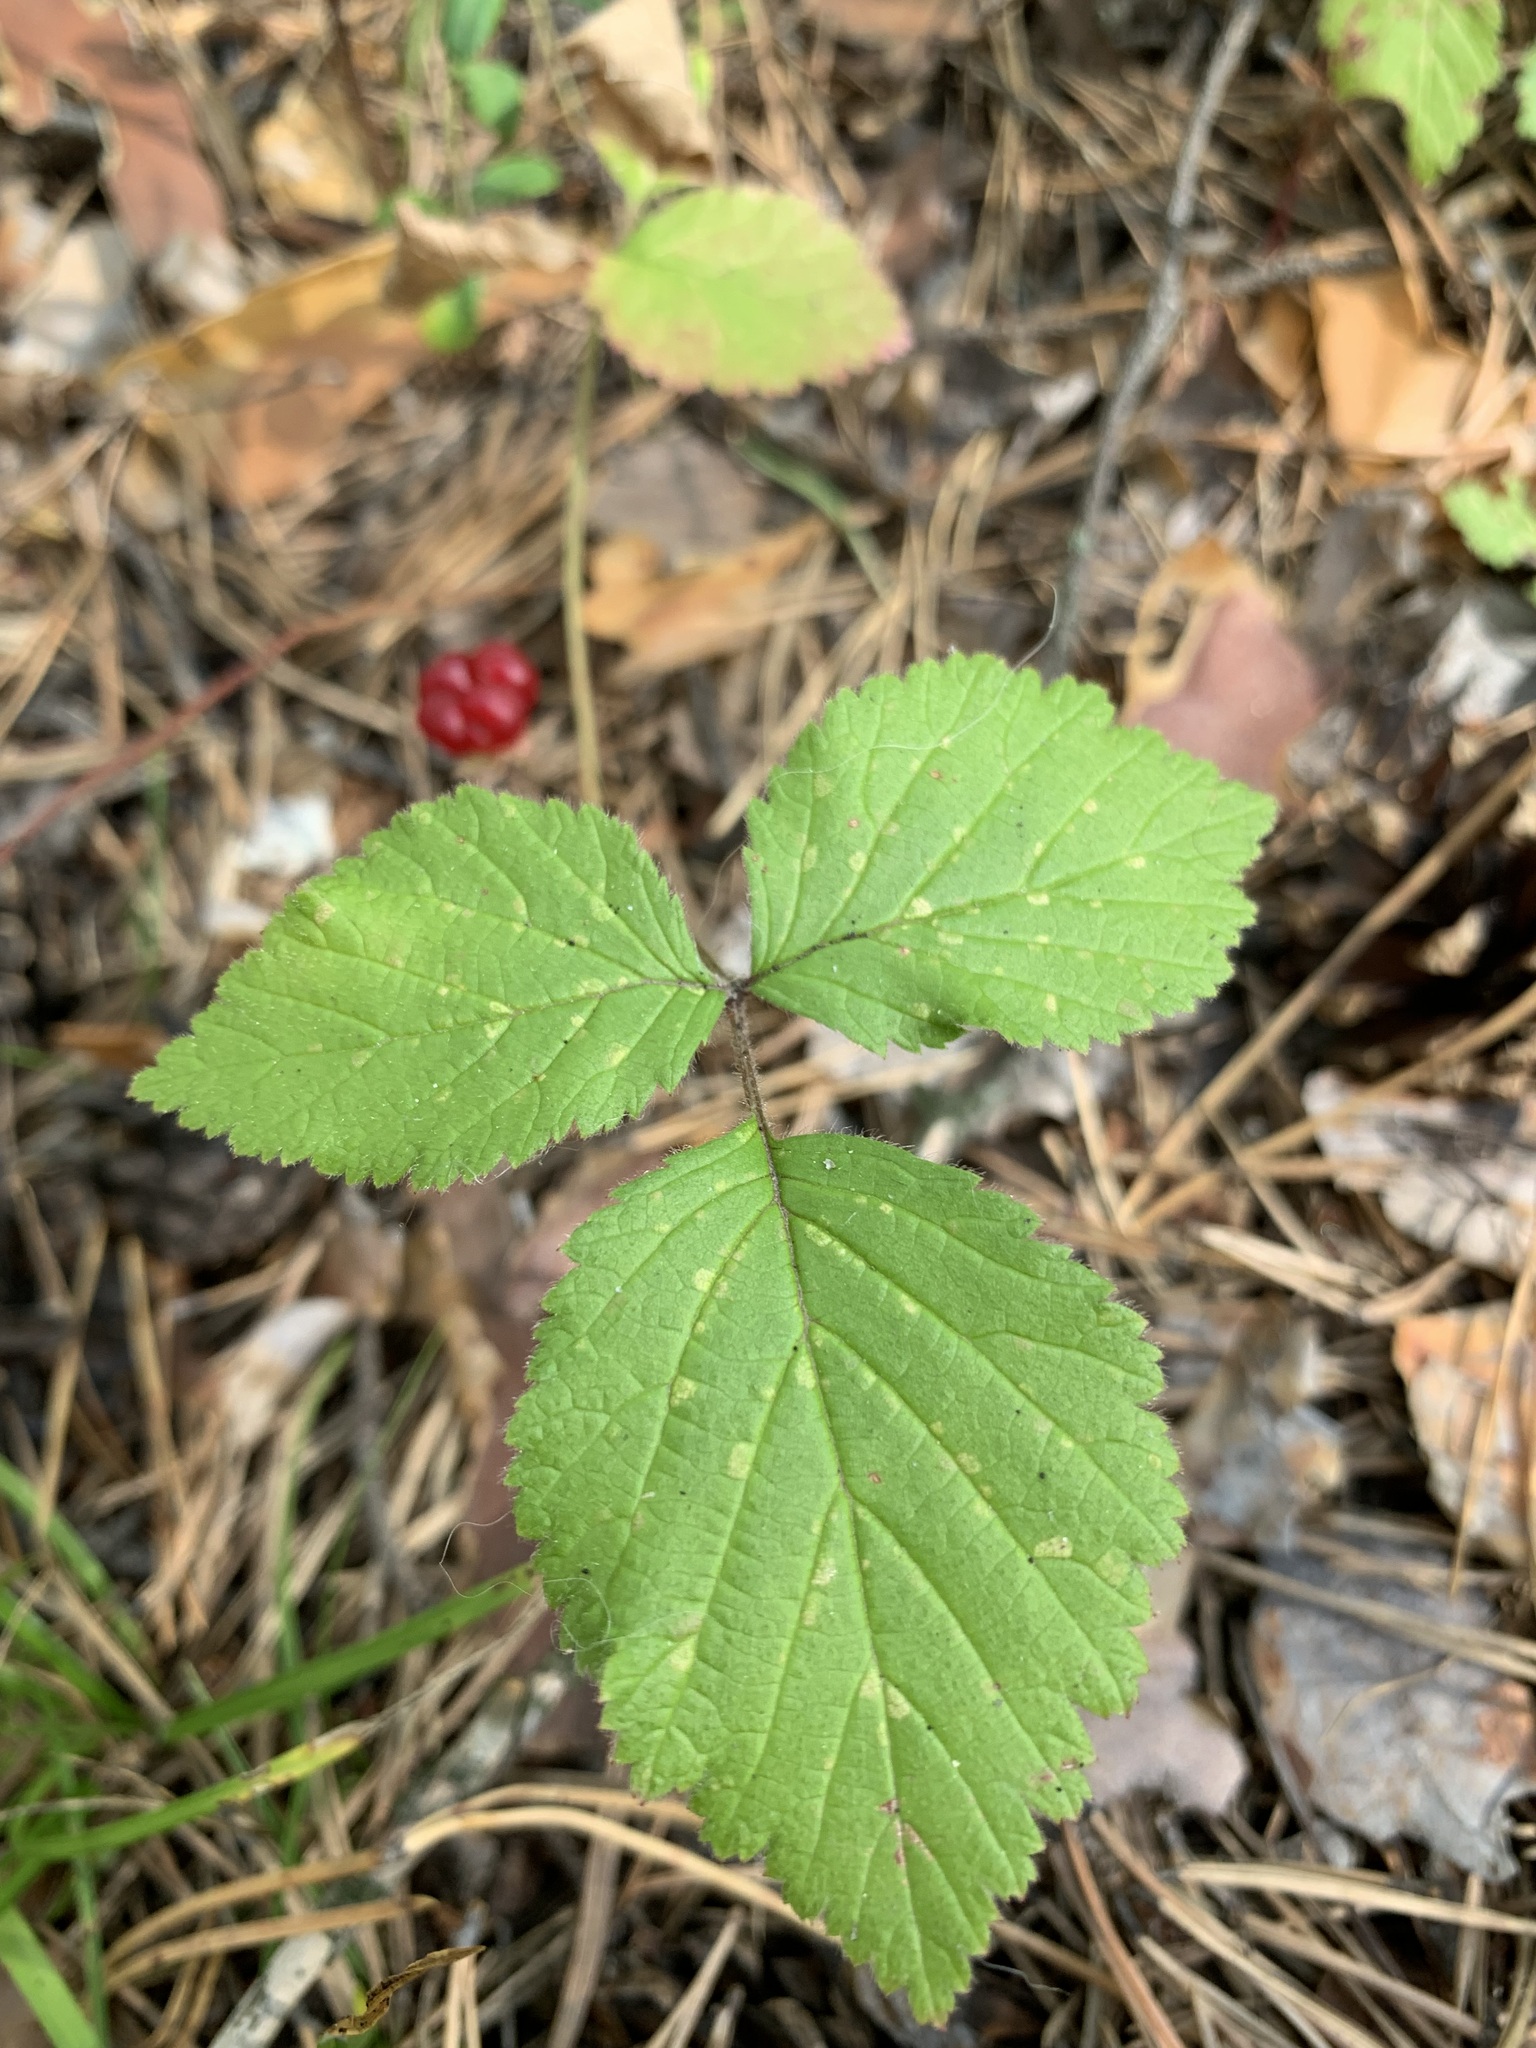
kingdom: Plantae
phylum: Tracheophyta
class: Magnoliopsida
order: Rosales
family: Rosaceae
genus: Rubus
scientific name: Rubus saxatilis
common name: Stone bramble
